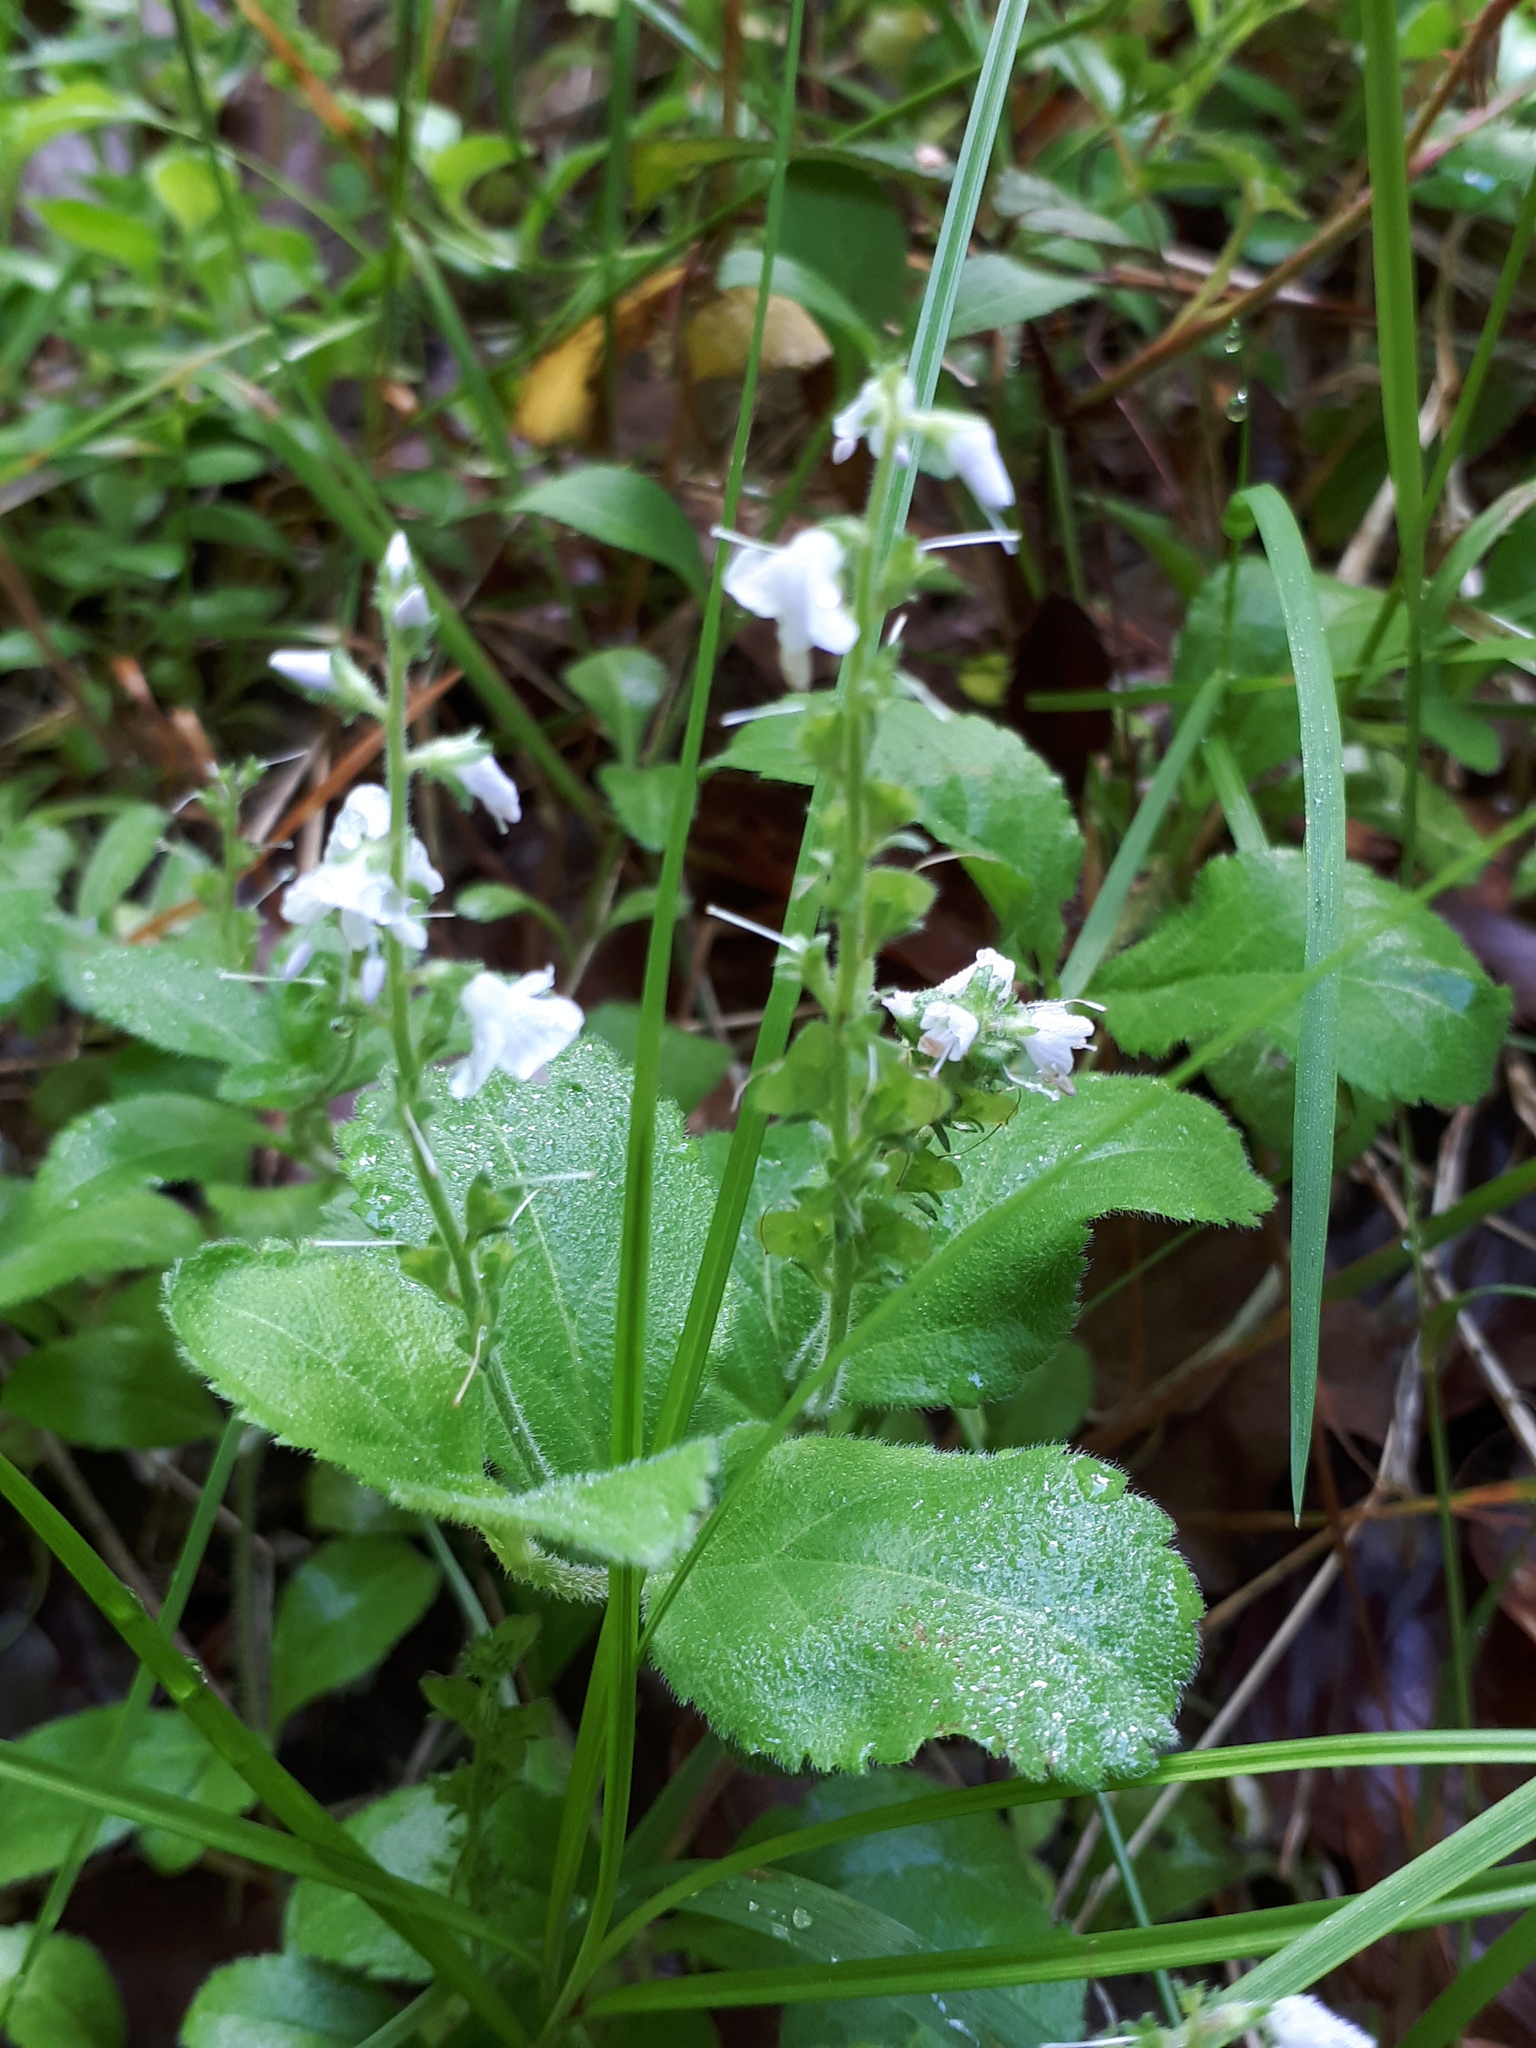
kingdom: Plantae
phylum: Tracheophyta
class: Magnoliopsida
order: Lamiales
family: Plantaginaceae
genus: Veronica
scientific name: Veronica officinalis
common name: Common speedwell
